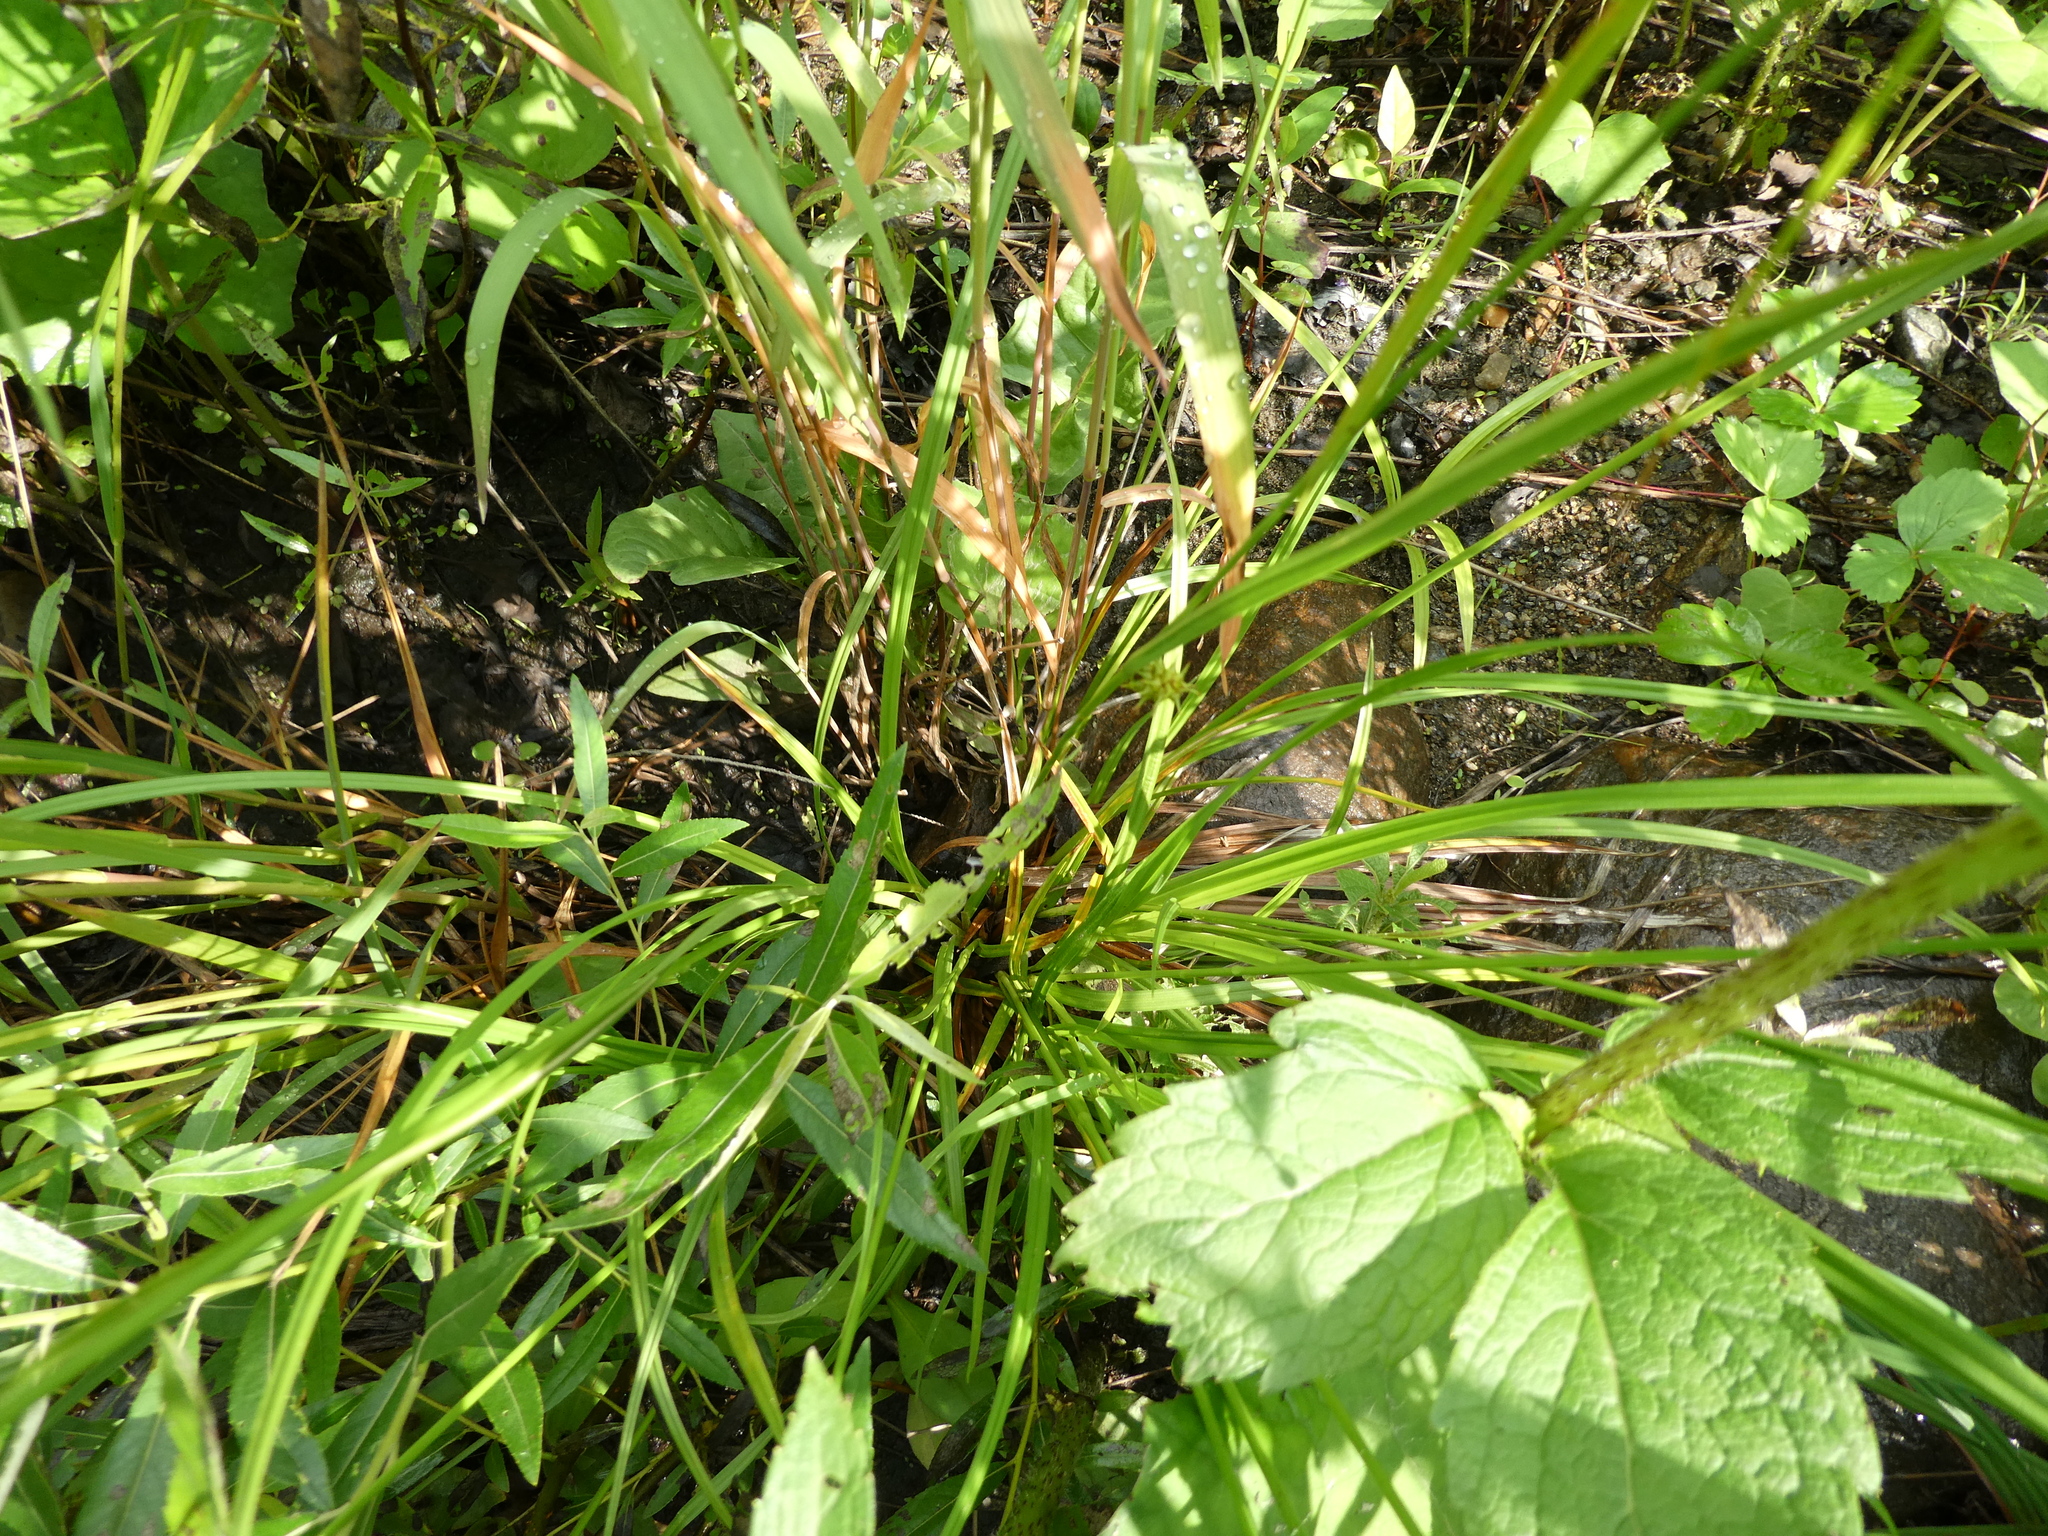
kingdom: Plantae
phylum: Tracheophyta
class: Liliopsida
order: Poales
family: Cyperaceae
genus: Carex
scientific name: Carex flava
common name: Large yellow-sedge
